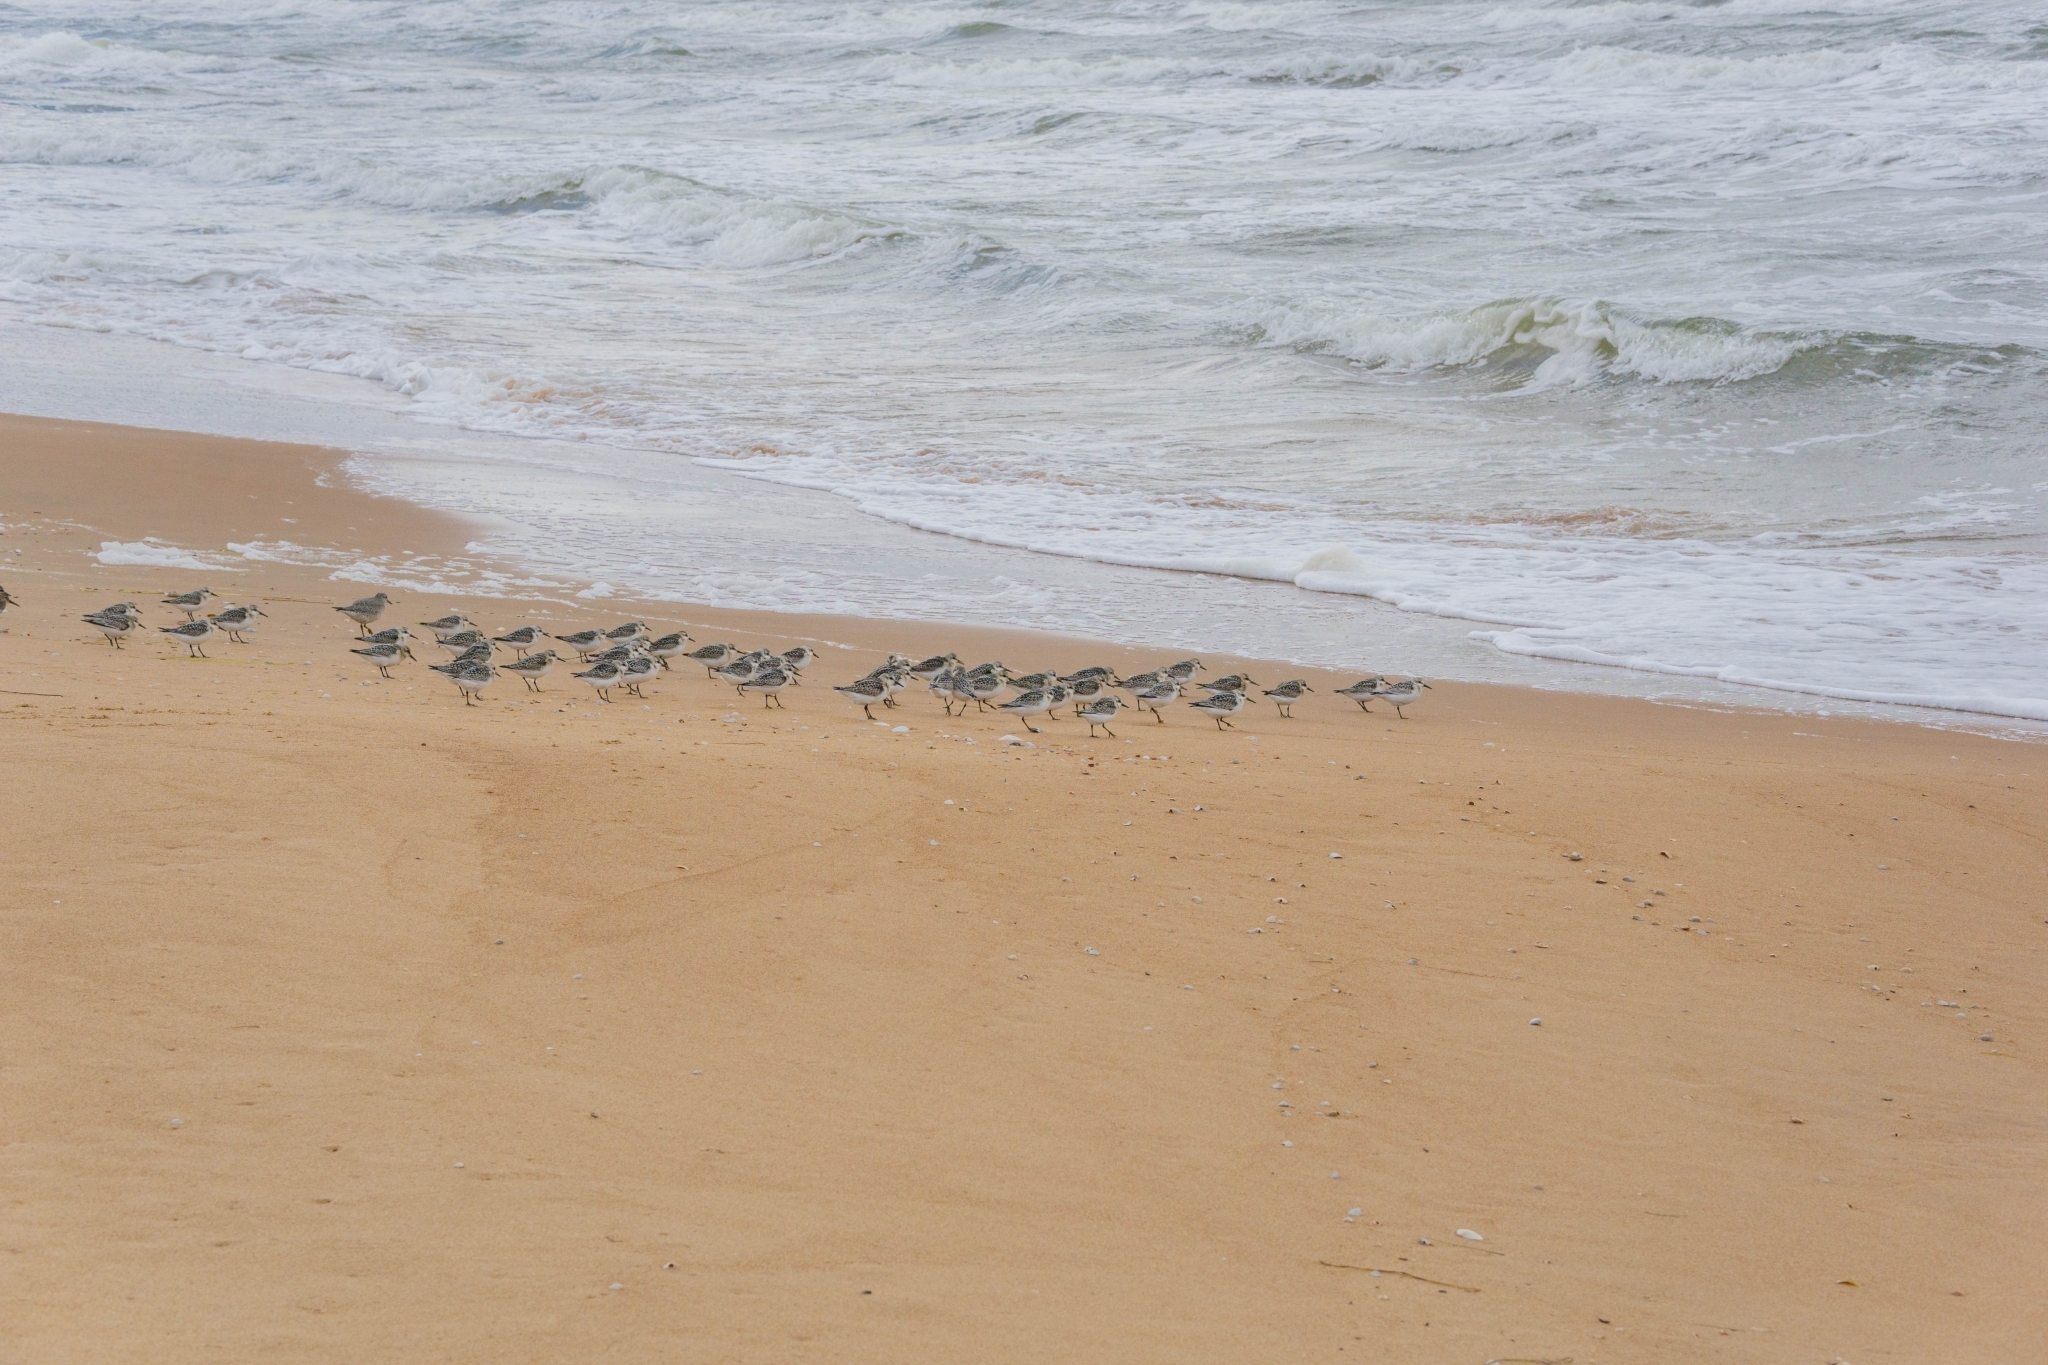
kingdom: Animalia
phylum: Chordata
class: Aves
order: Charadriiformes
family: Scolopacidae
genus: Calidris
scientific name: Calidris alba
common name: Sanderling
